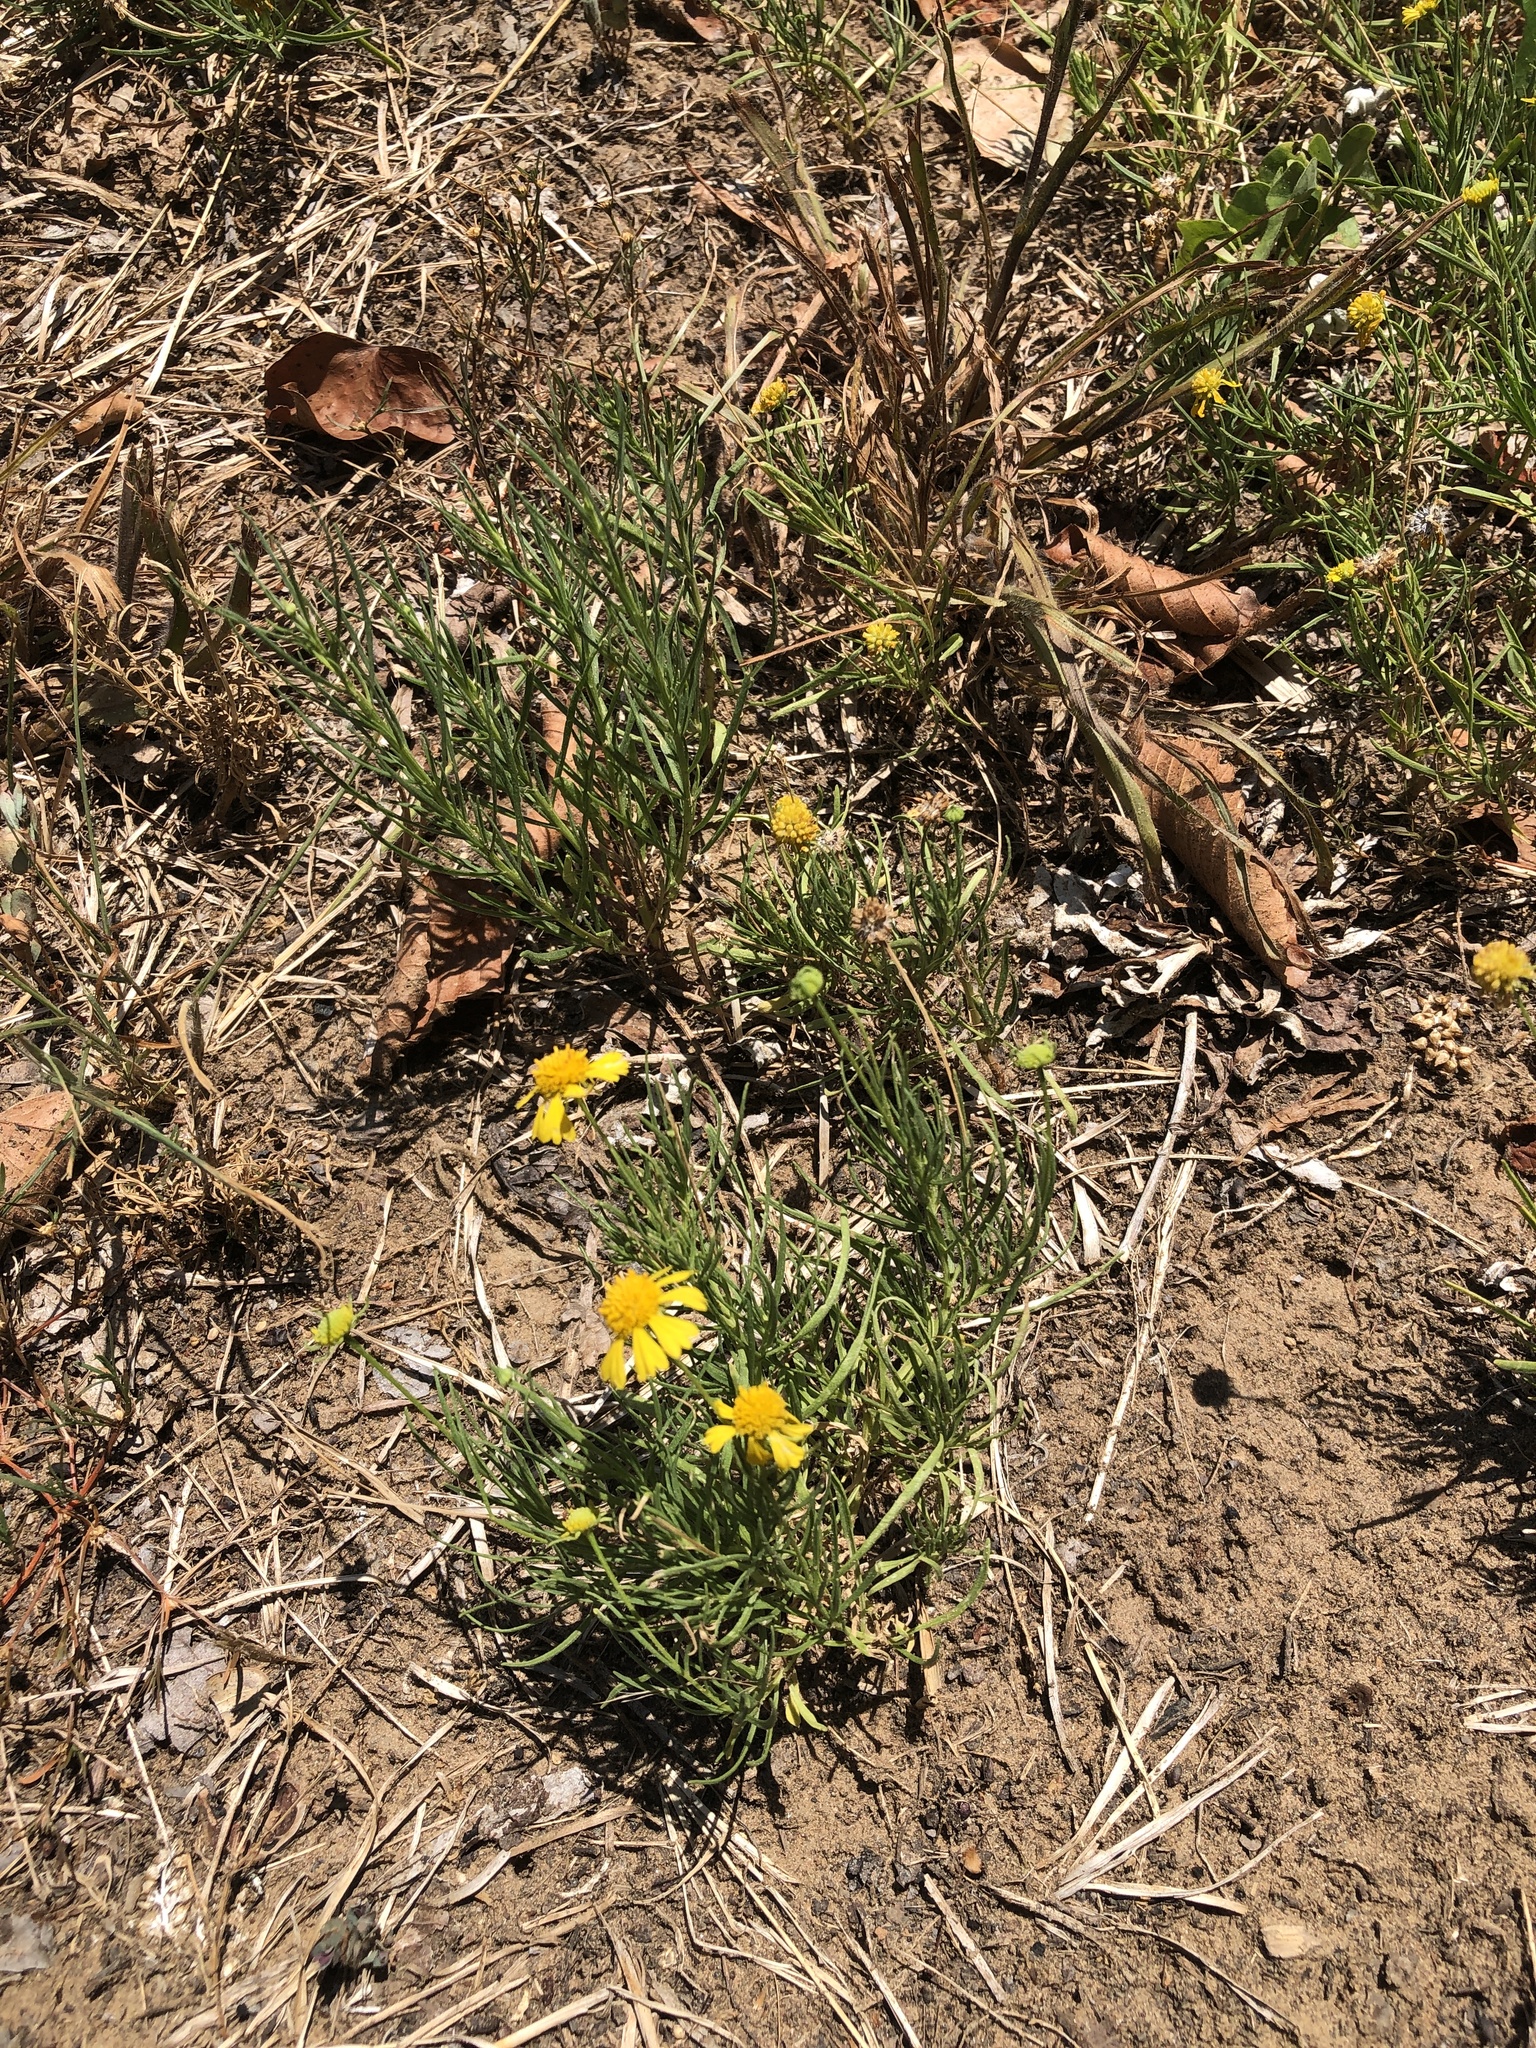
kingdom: Plantae
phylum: Tracheophyta
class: Magnoliopsida
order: Asterales
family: Asteraceae
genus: Helenium
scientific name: Helenium amarum
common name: Bitter sneezeweed
